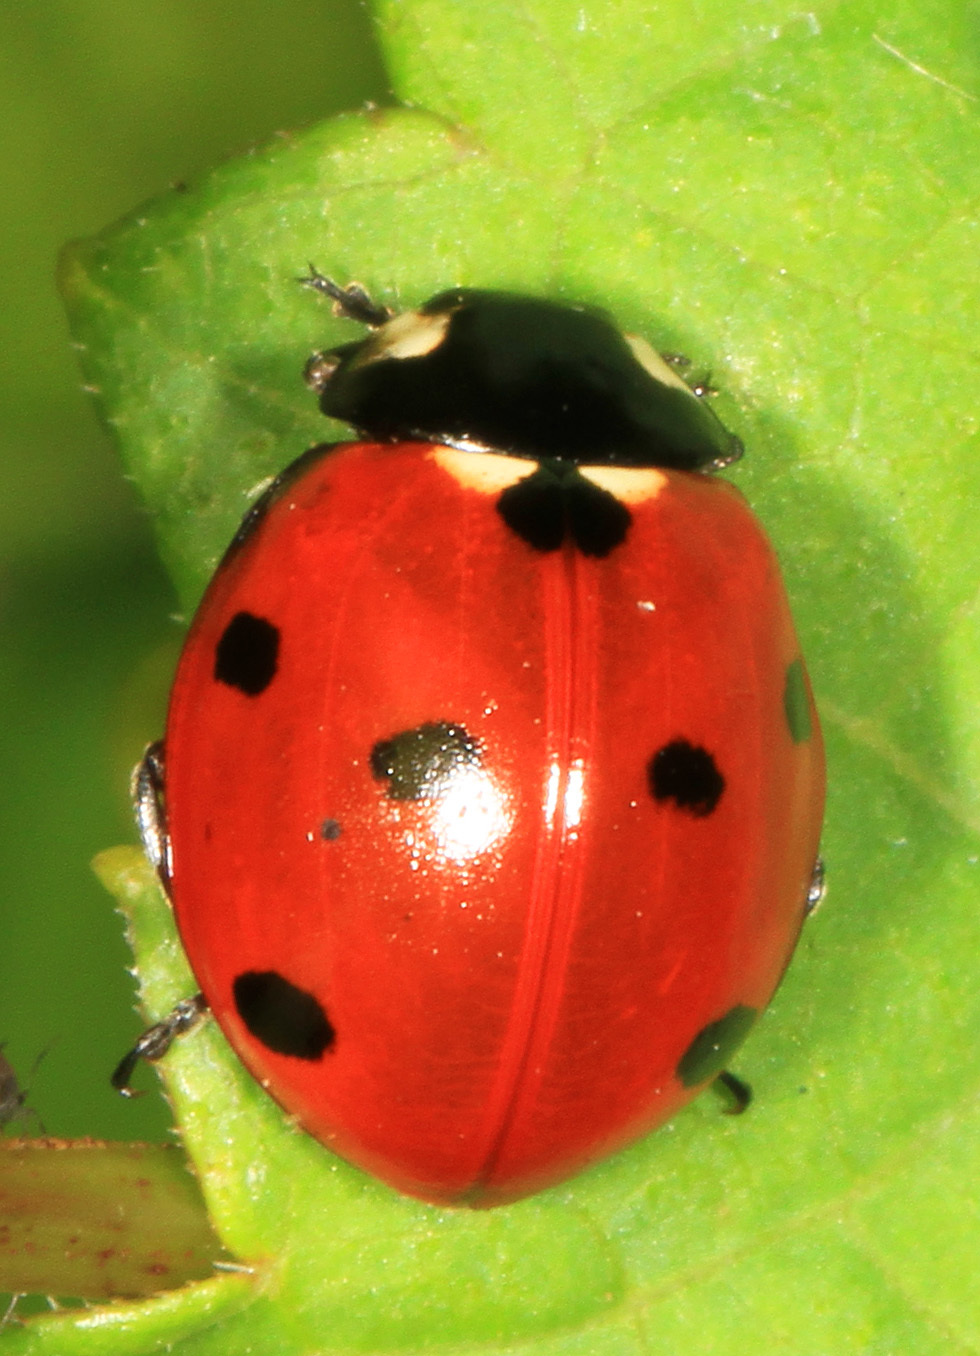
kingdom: Animalia
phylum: Arthropoda
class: Insecta
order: Coleoptera
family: Coccinellidae
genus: Coccinella
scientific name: Coccinella septempunctata
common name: Sevenspotted lady beetle
